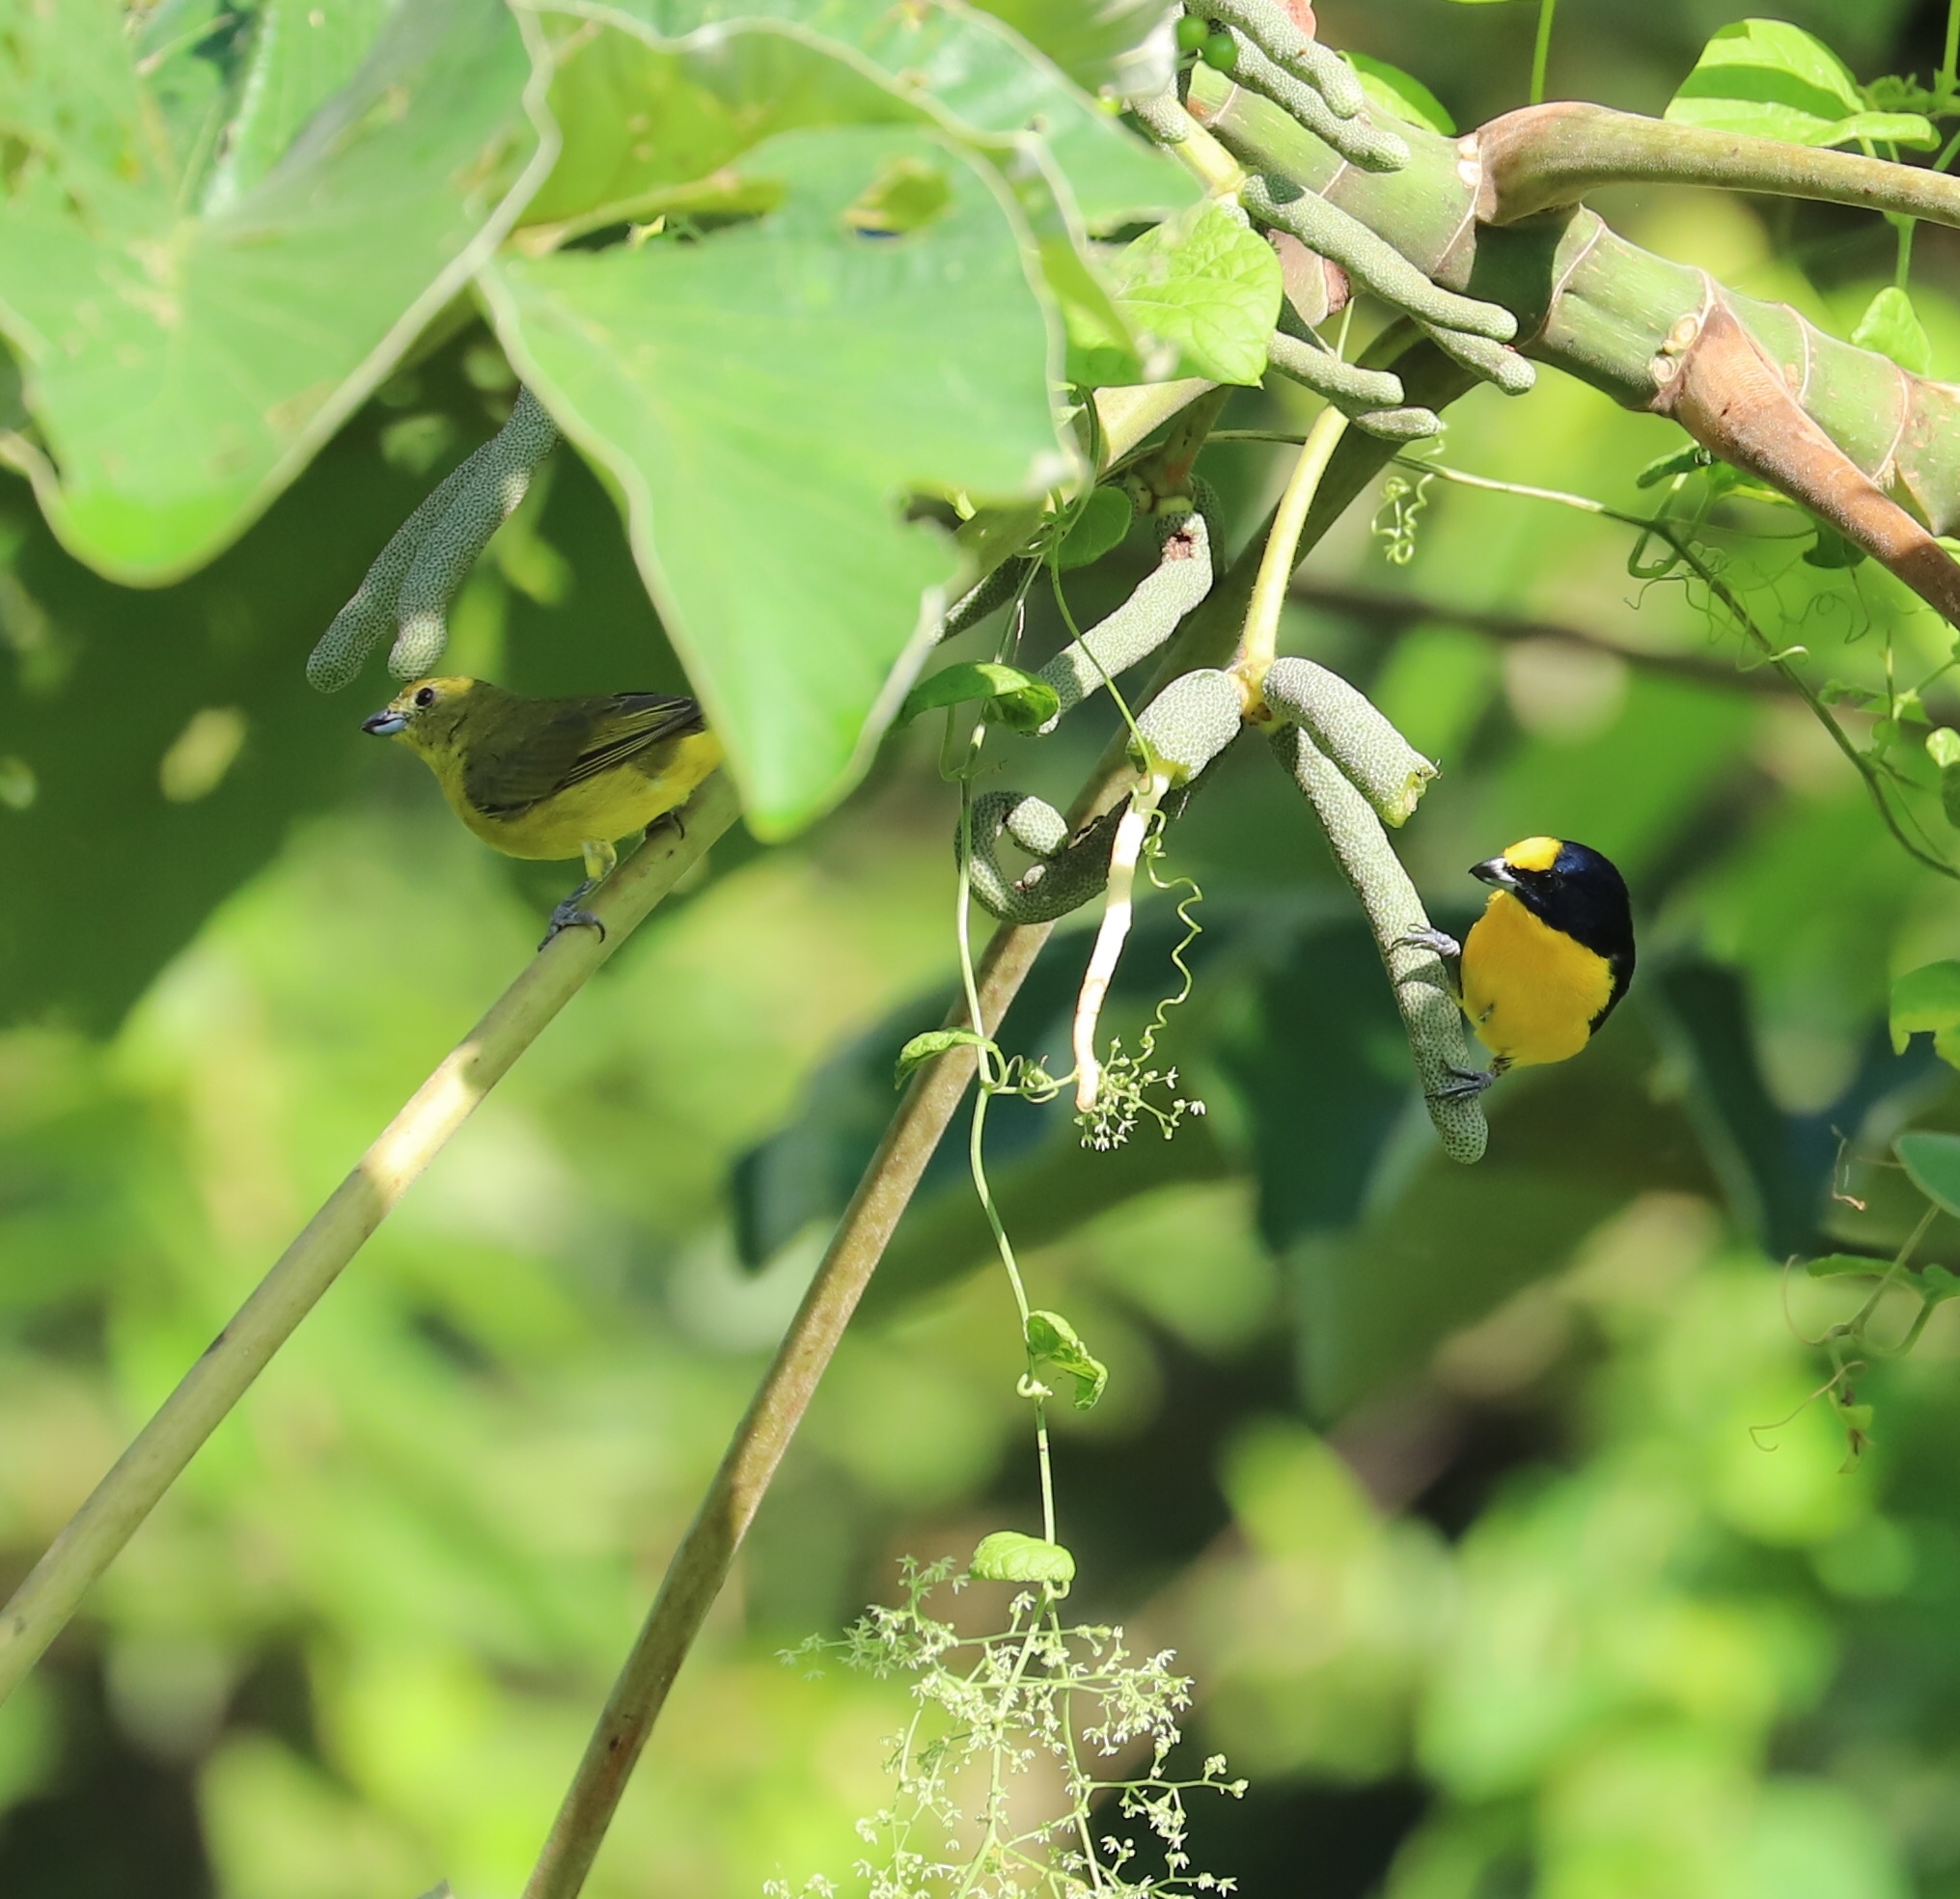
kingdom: Animalia
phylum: Chordata
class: Aves
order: Passeriformes
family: Fringillidae
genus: Euphonia
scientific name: Euphonia laniirostris
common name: Thick-billed euphonia
